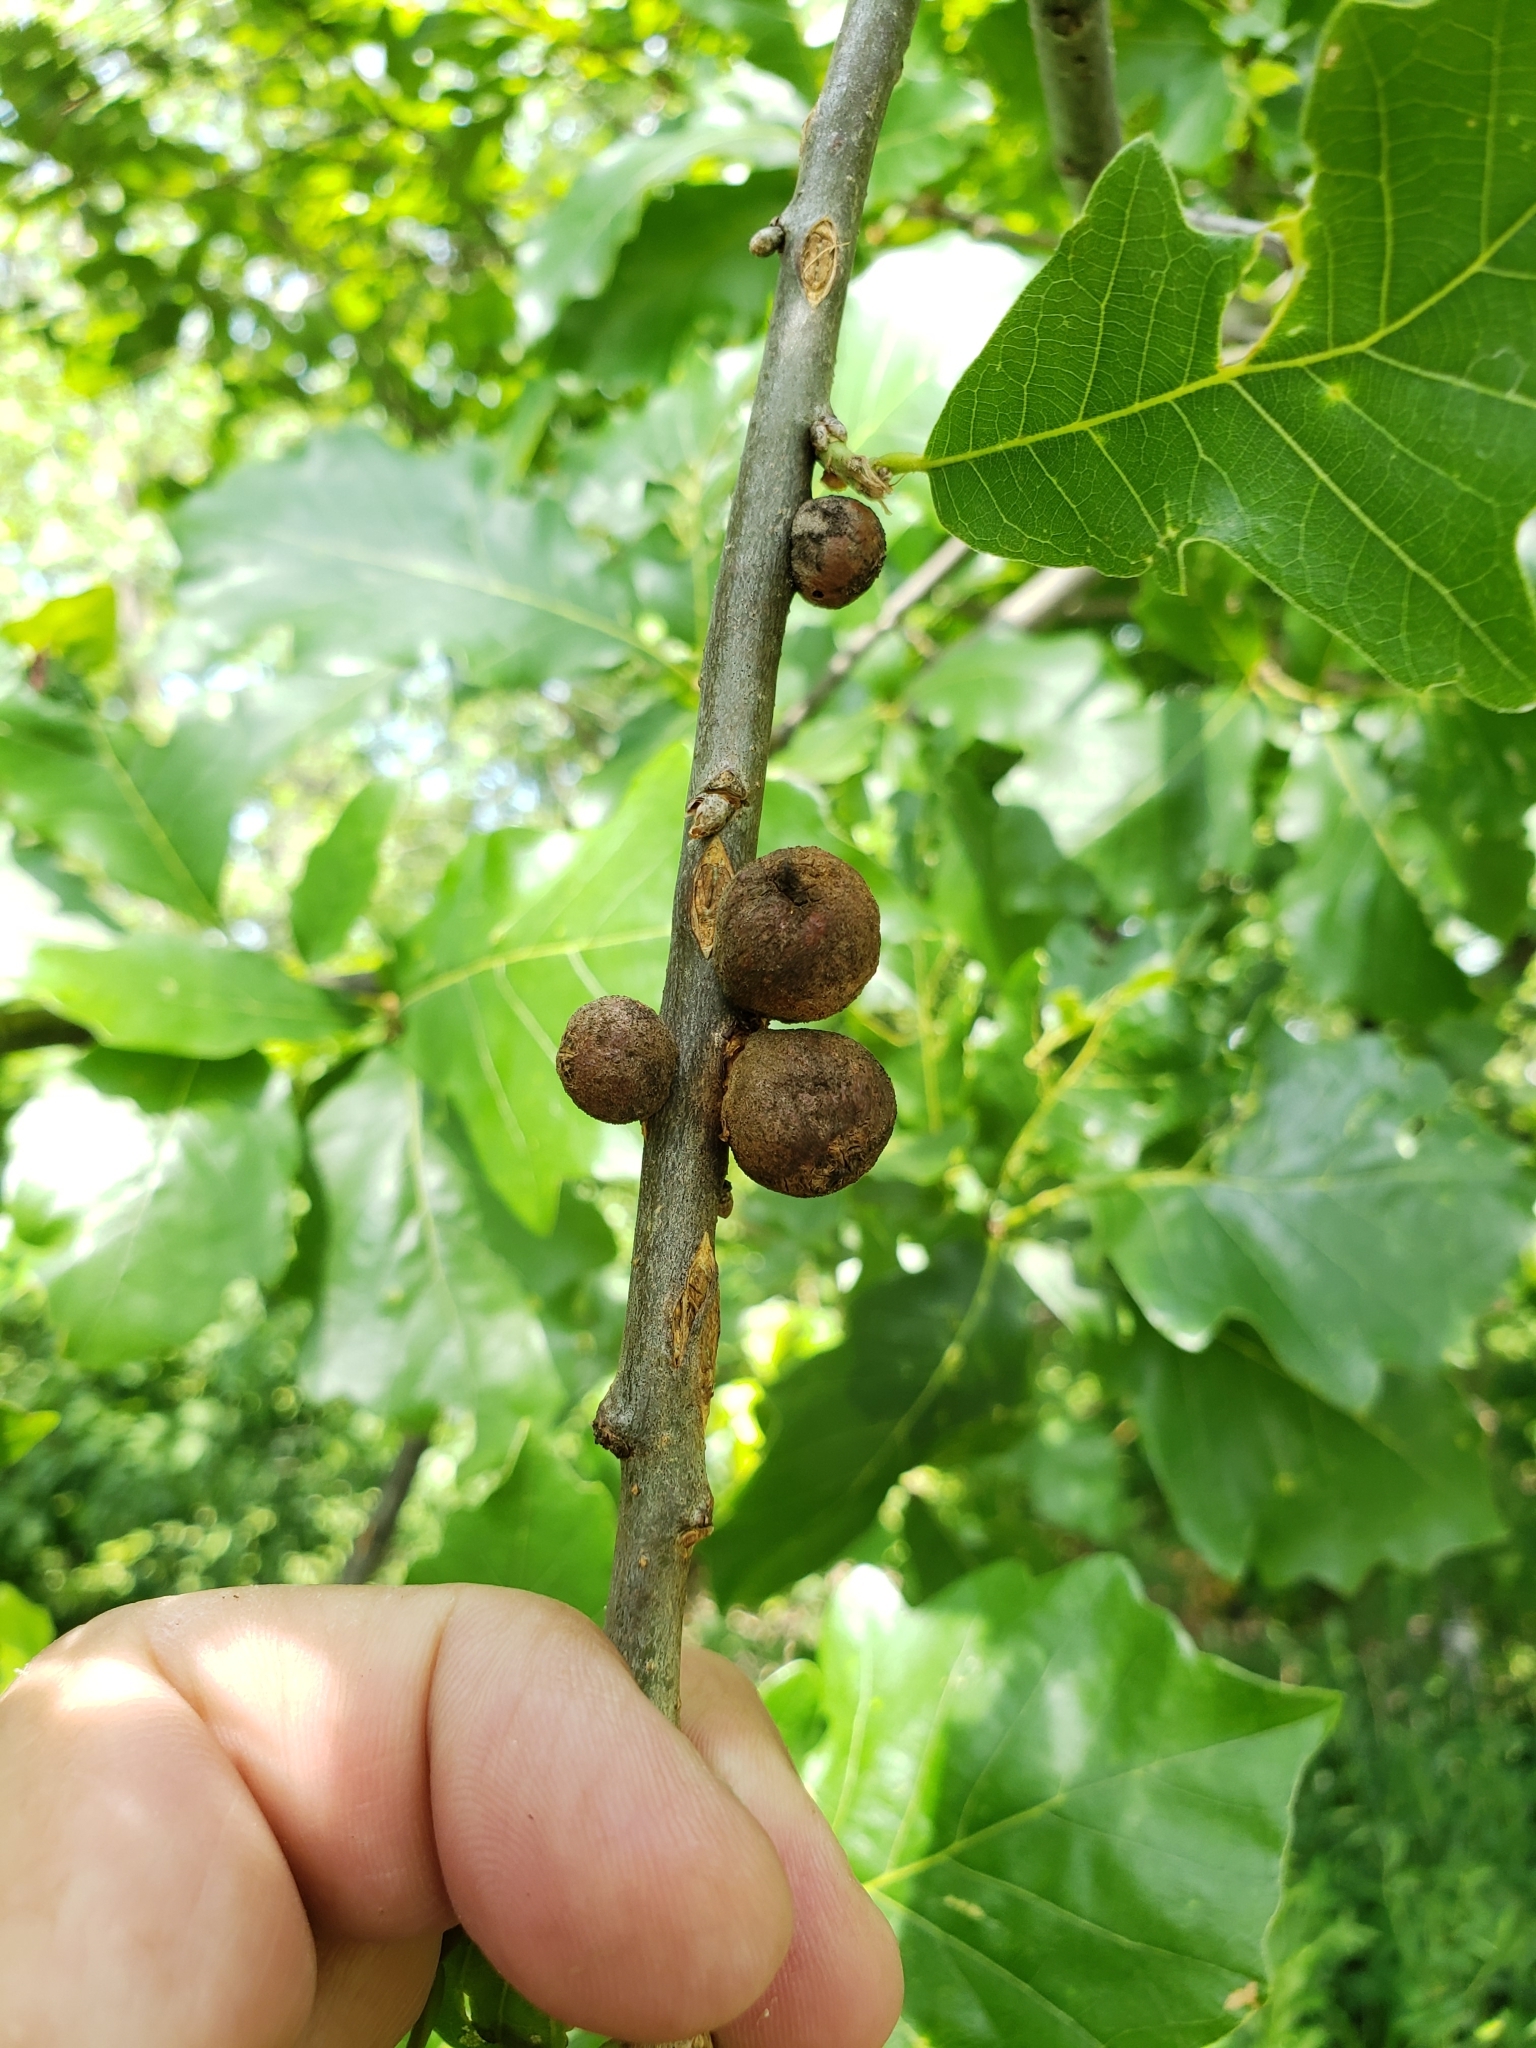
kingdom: Animalia
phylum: Arthropoda
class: Insecta
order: Hymenoptera
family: Cynipidae
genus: Disholcaspis
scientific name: Disholcaspis quercusglobulus
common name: Round bullet gall wasp
